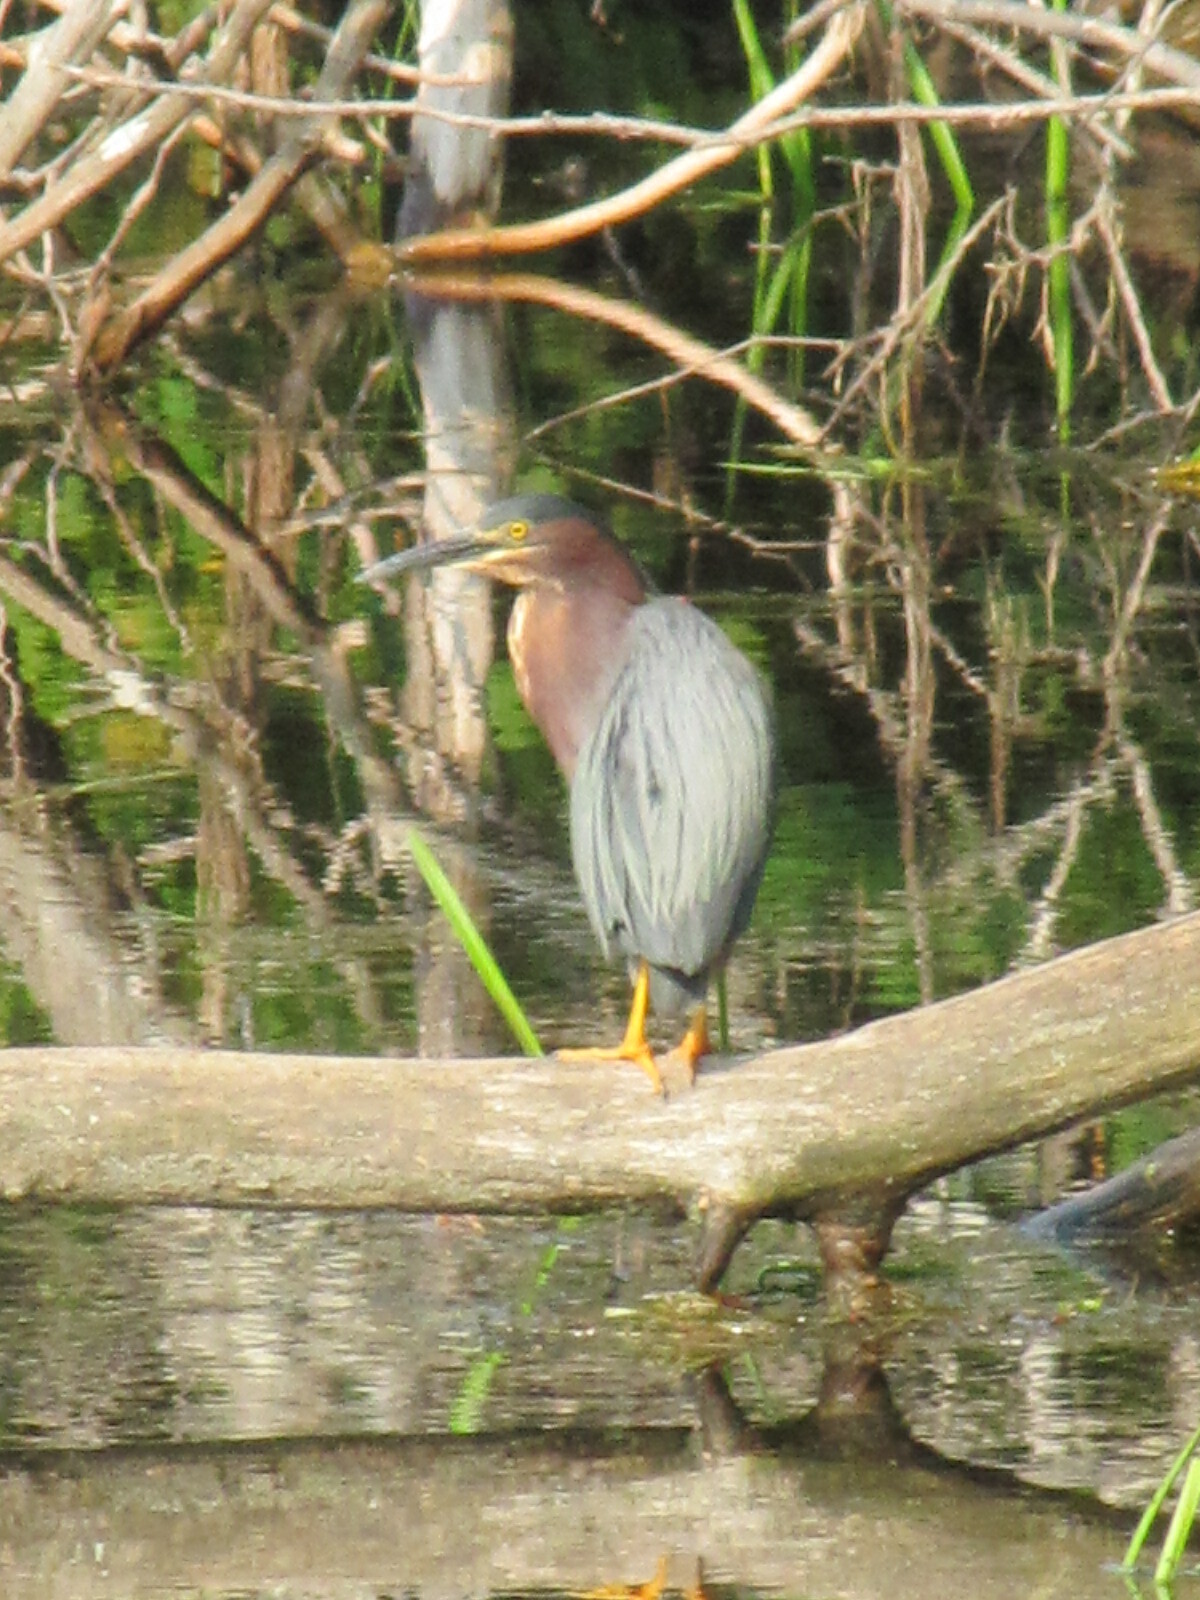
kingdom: Animalia
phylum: Chordata
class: Aves
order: Pelecaniformes
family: Ardeidae
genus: Butorides
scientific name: Butorides virescens
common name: Green heron
